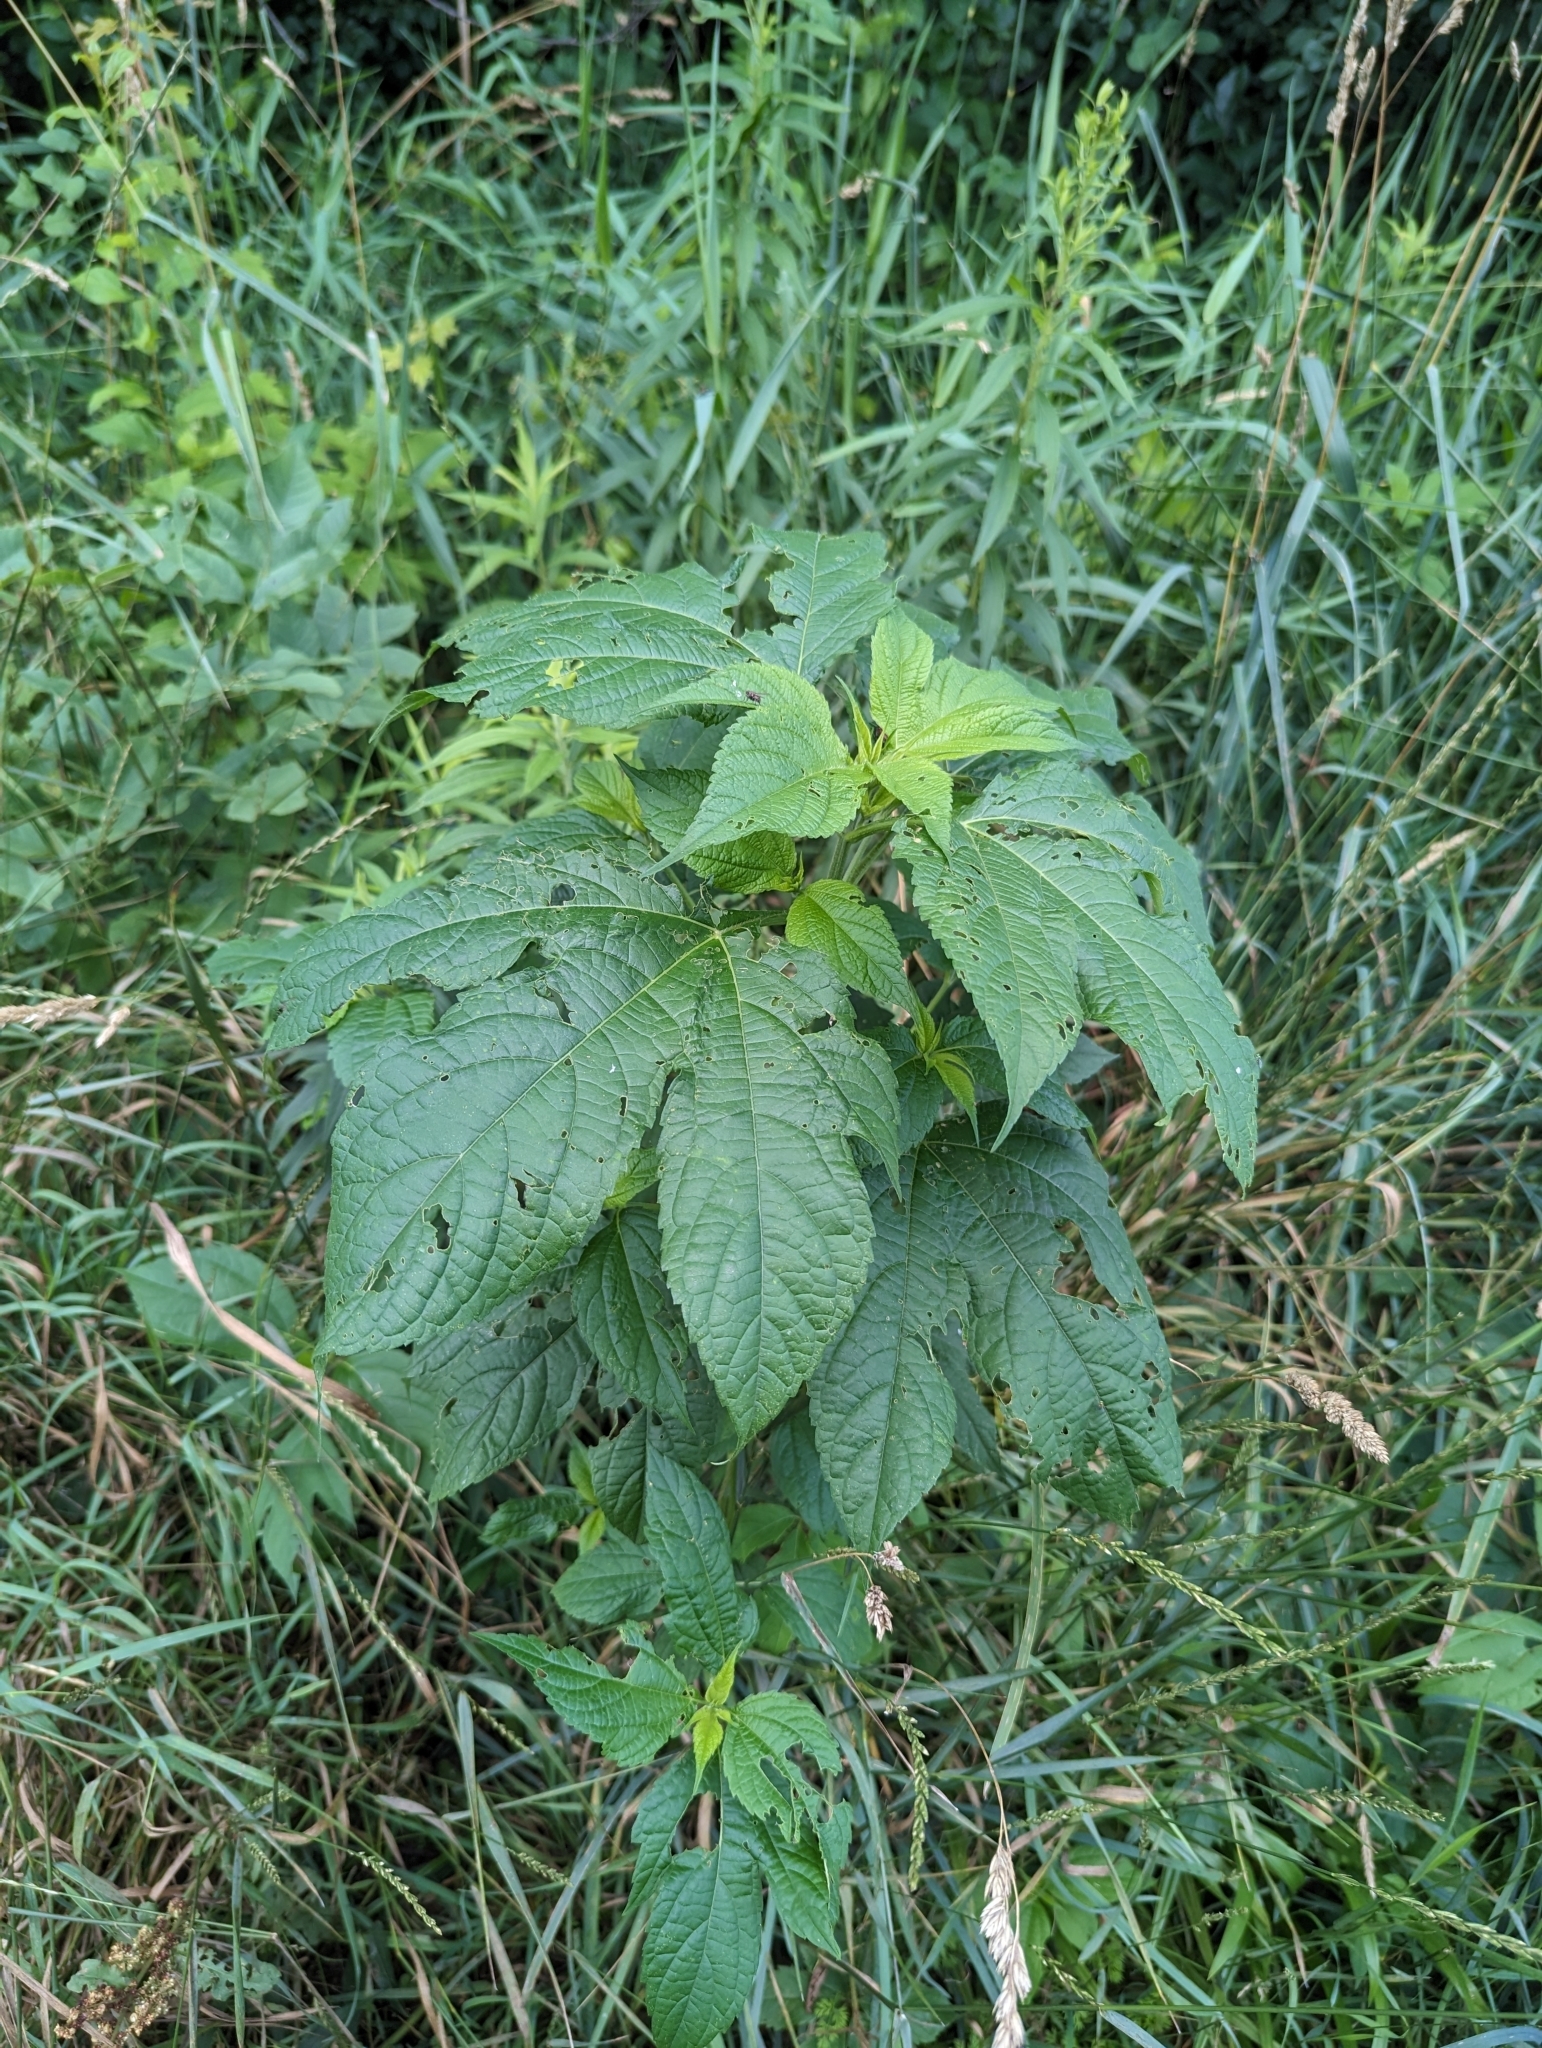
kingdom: Plantae
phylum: Tracheophyta
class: Magnoliopsida
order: Asterales
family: Asteraceae
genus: Ambrosia
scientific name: Ambrosia trifida
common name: Giant ragweed
